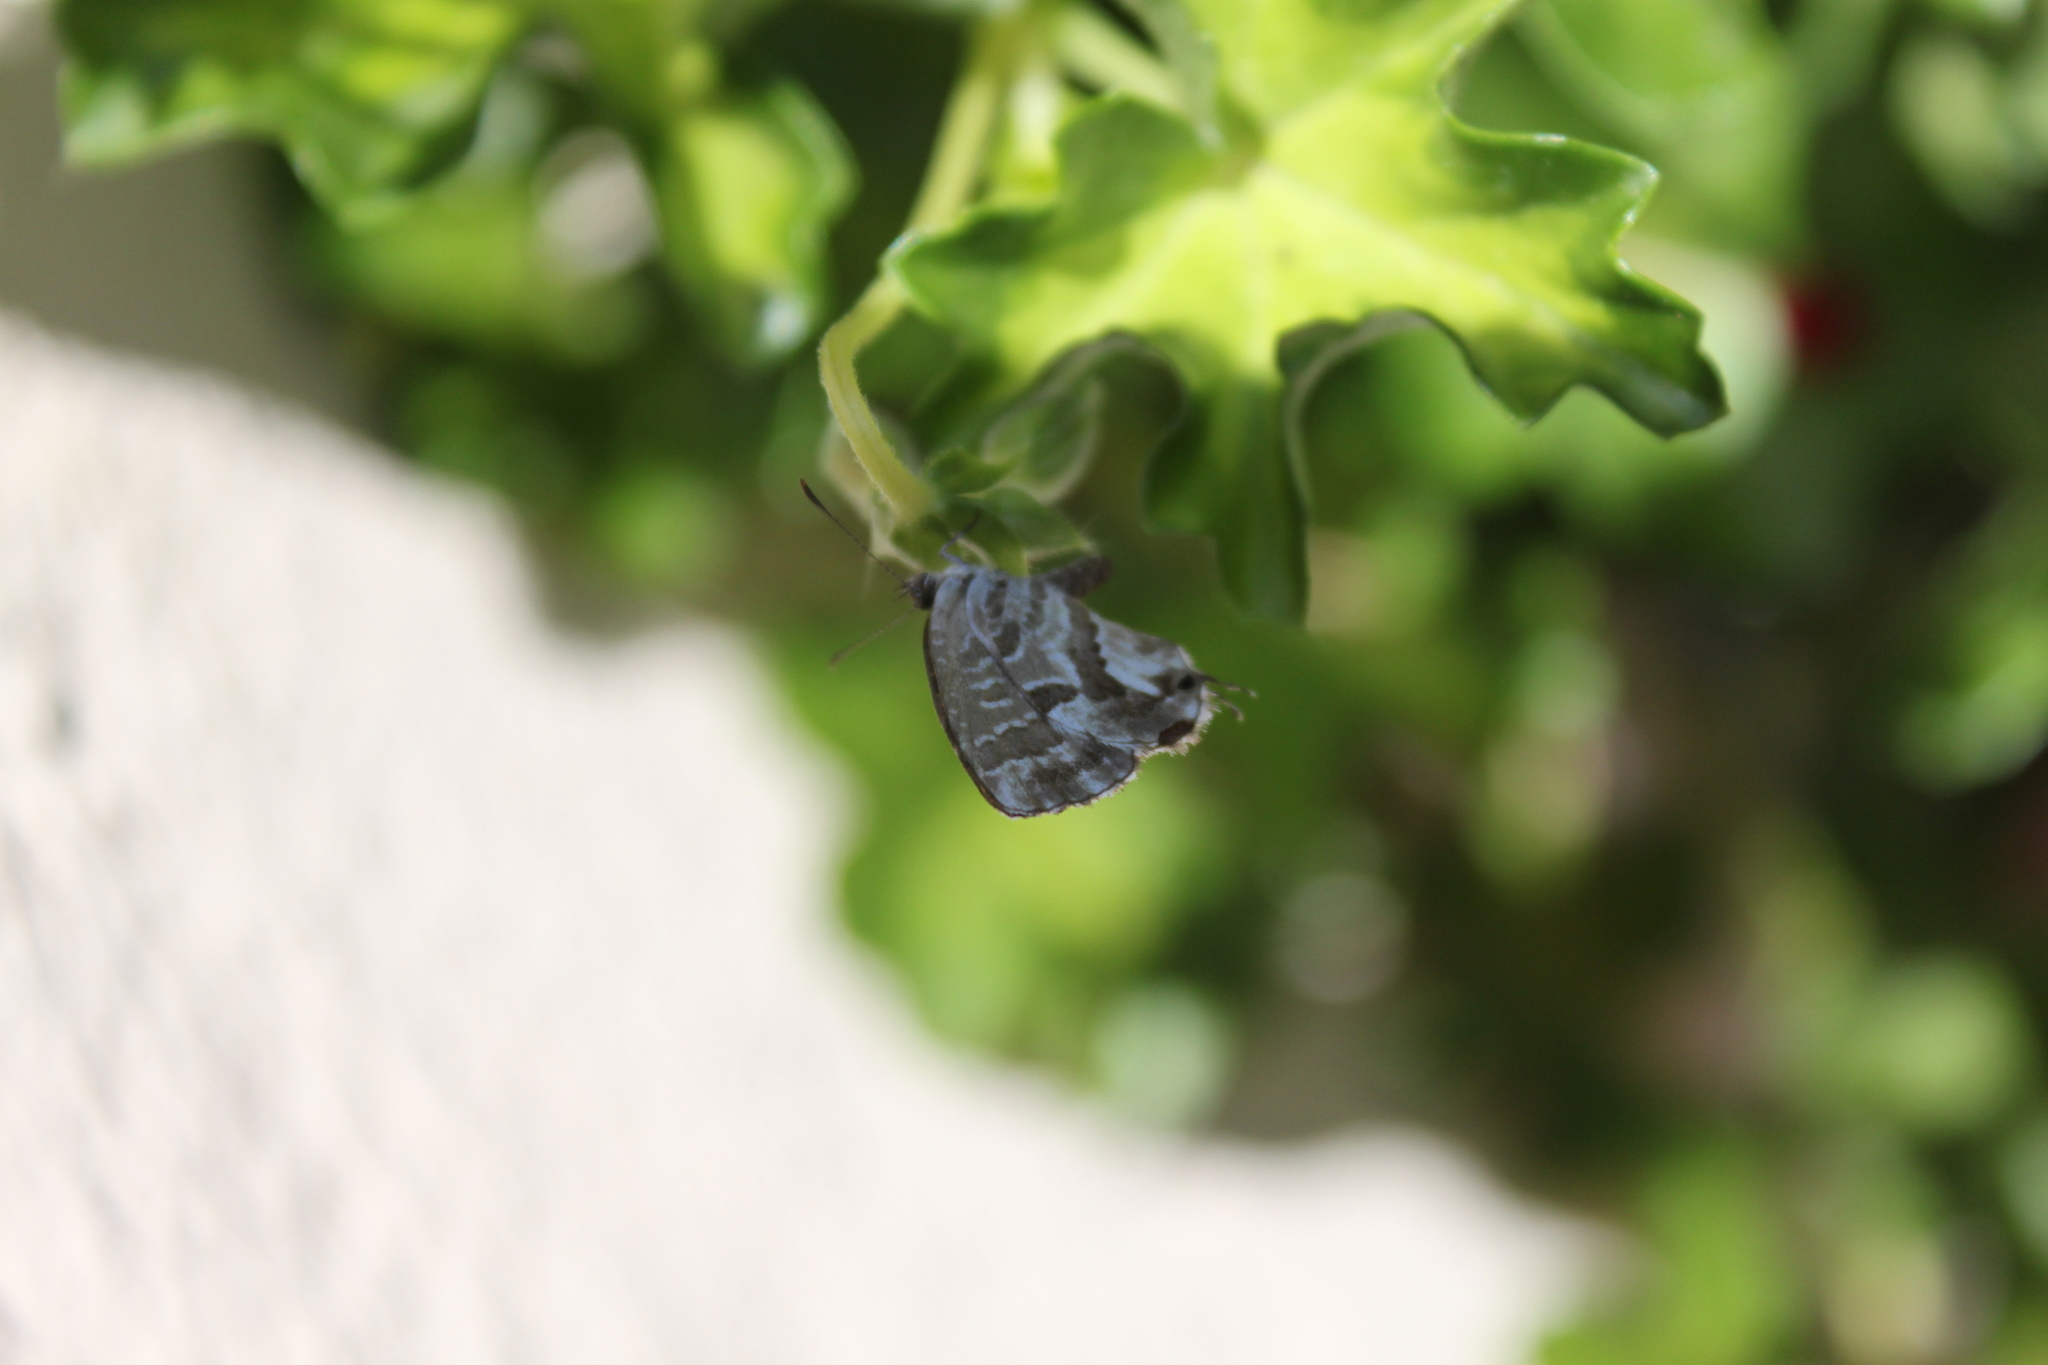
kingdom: Animalia
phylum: Arthropoda
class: Insecta
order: Lepidoptera
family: Lycaenidae
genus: Cacyreus
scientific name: Cacyreus marshalli
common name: Geranium bronze
